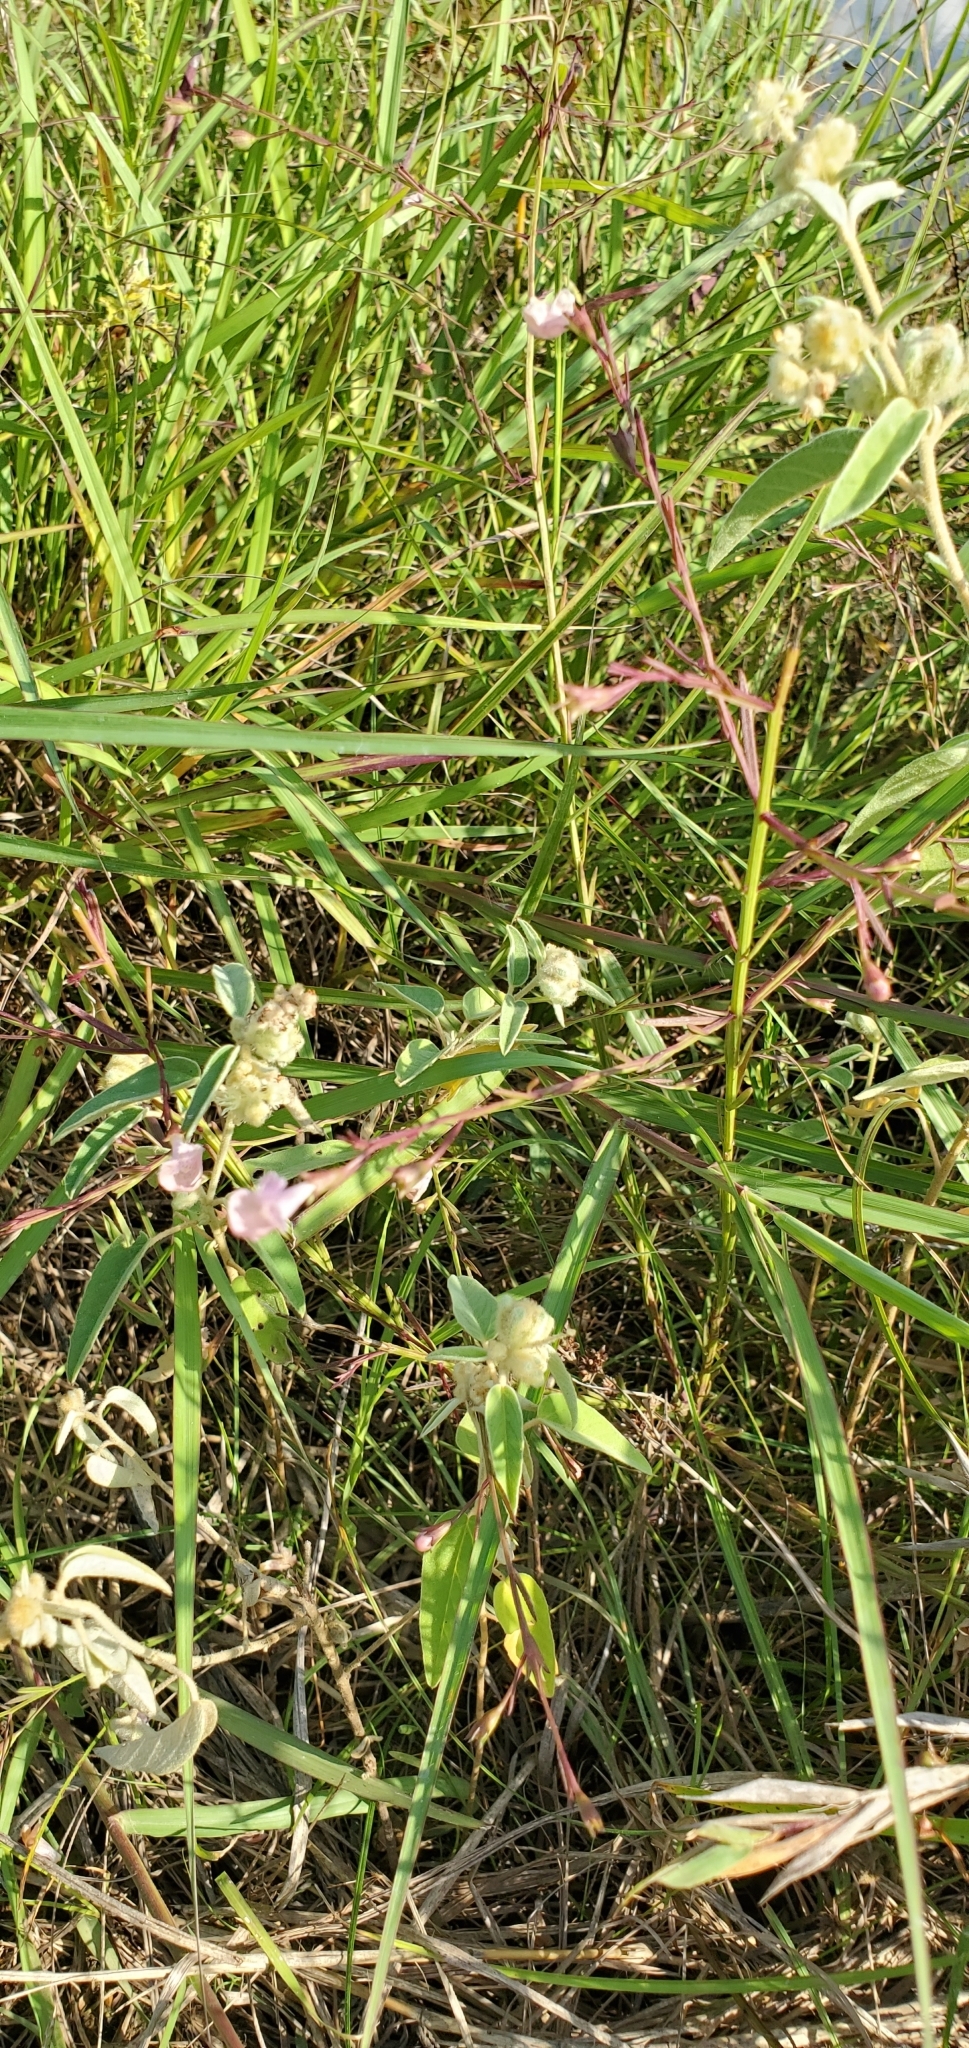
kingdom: Plantae
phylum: Tracheophyta
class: Magnoliopsida
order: Lamiales
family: Orobanchaceae
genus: Agalinis
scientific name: Agalinis viridis
